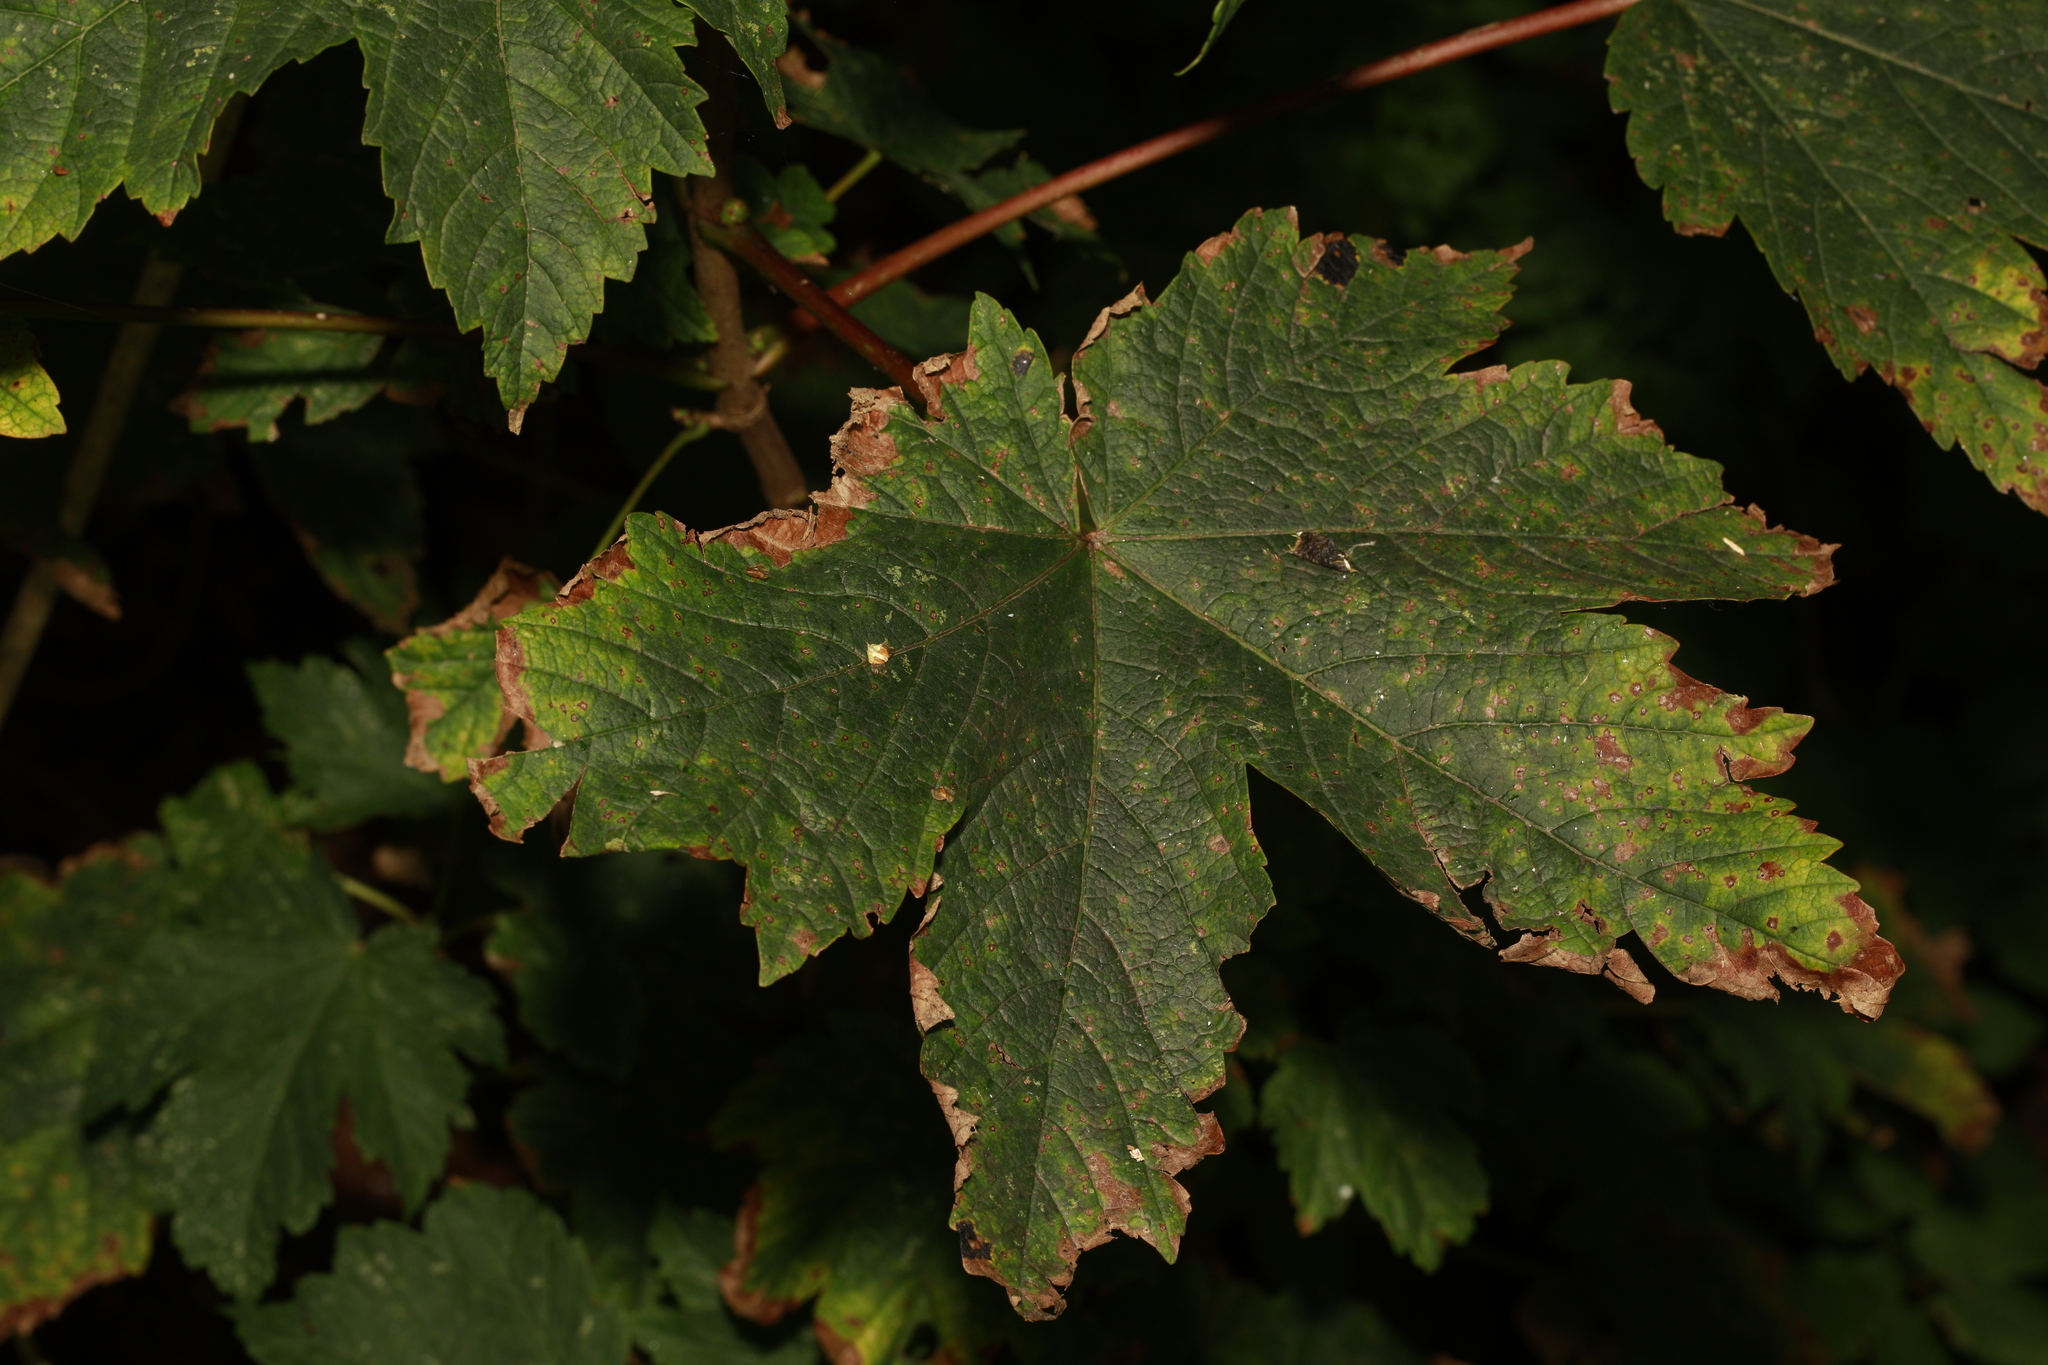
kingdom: Plantae
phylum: Tracheophyta
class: Magnoliopsida
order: Sapindales
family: Sapindaceae
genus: Acer
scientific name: Acer pseudoplatanus
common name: Sycamore
